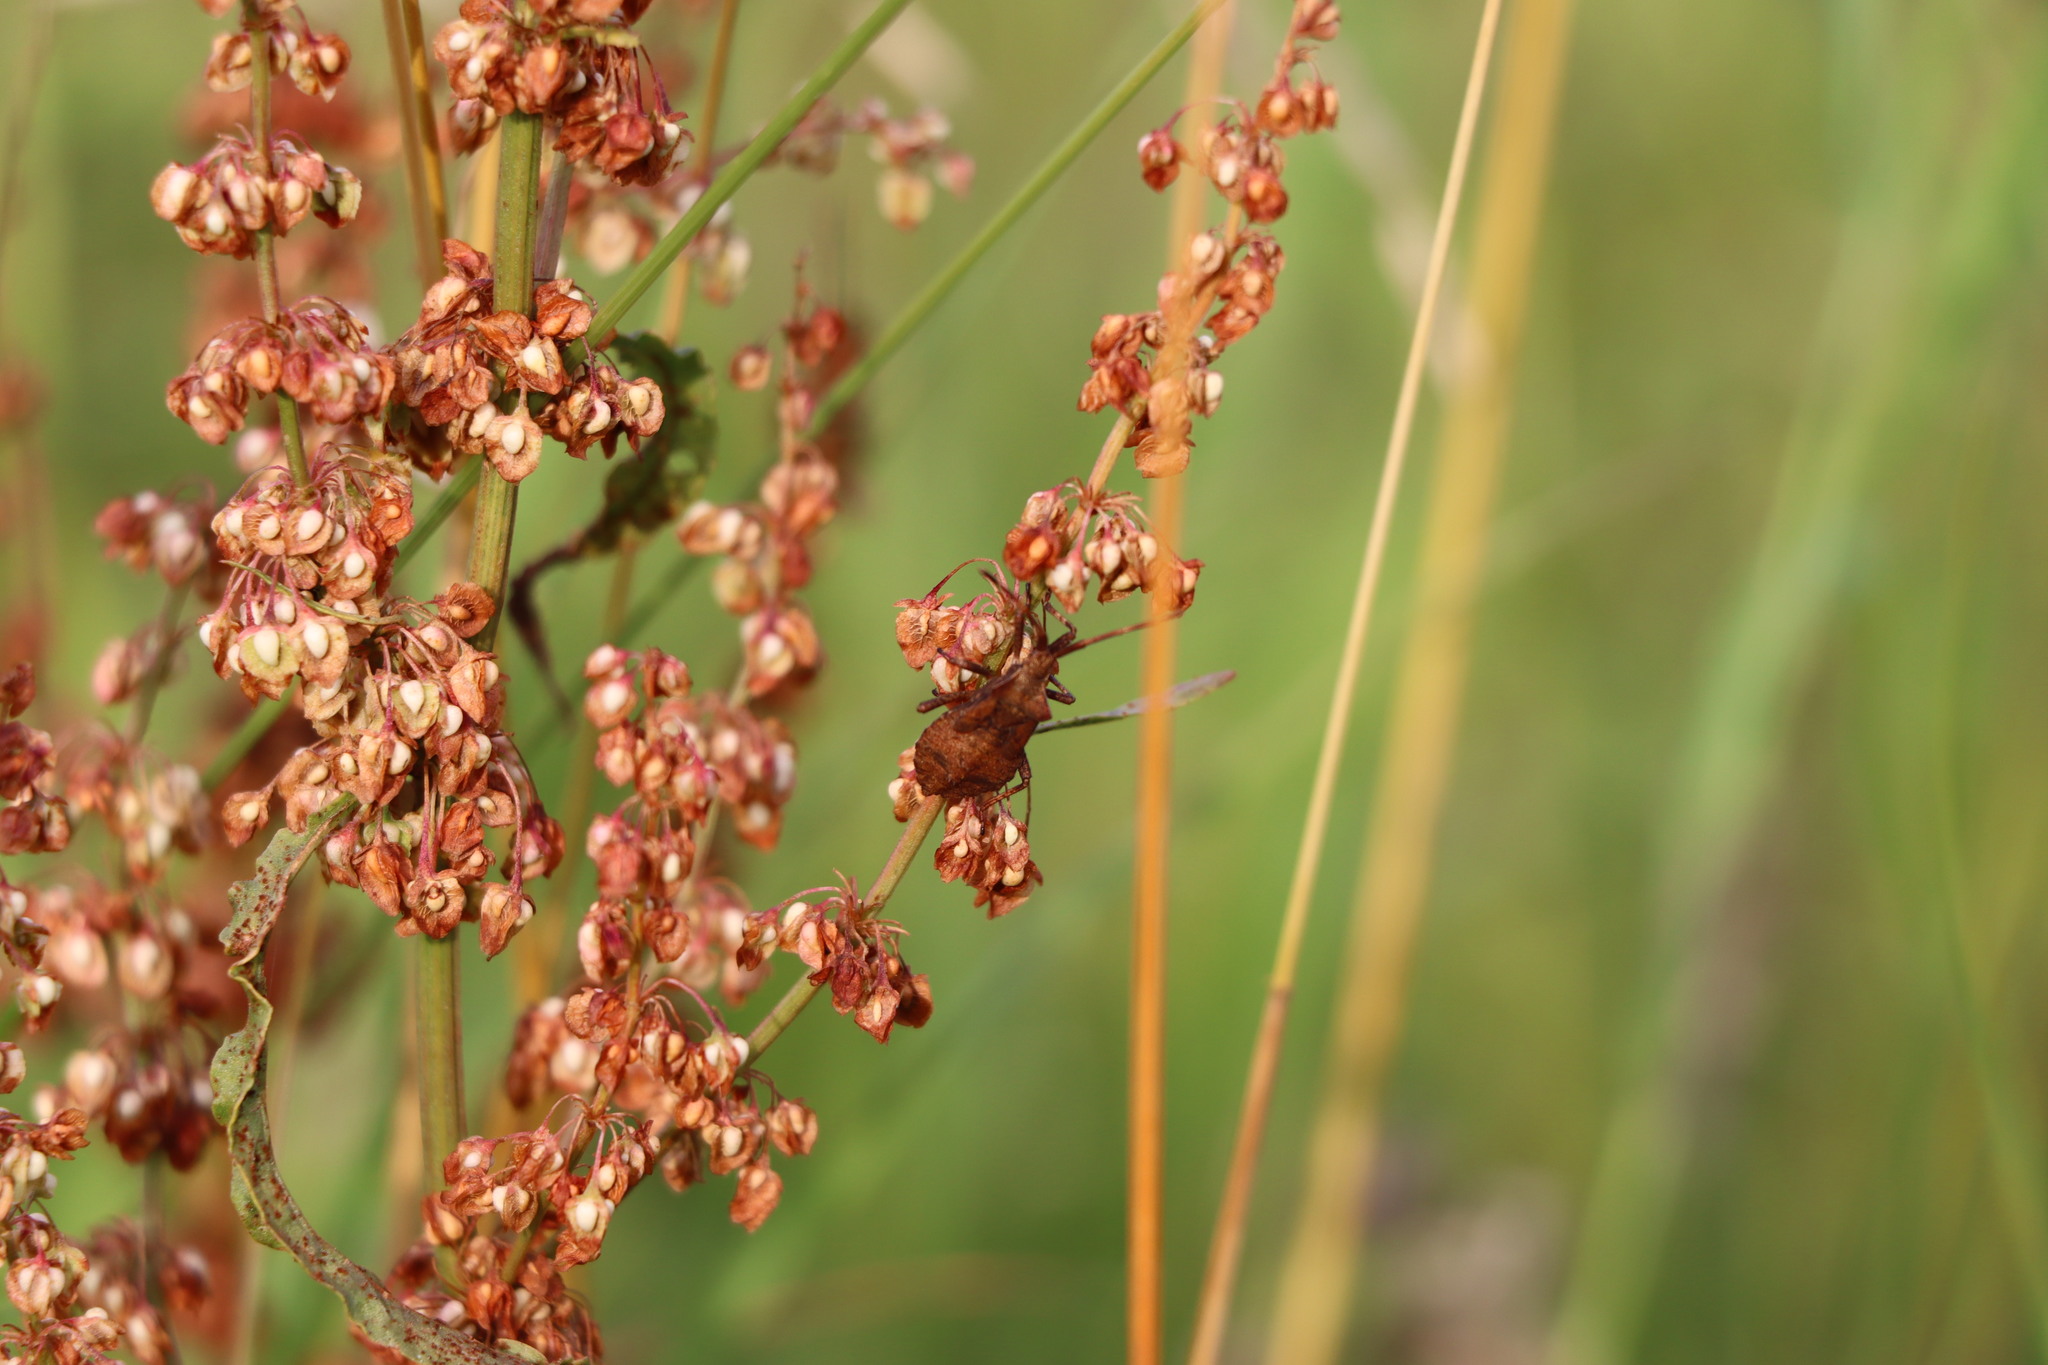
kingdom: Animalia
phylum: Arthropoda
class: Insecta
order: Hemiptera
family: Coreidae
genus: Coreus
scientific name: Coreus marginatus
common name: Dock bug
